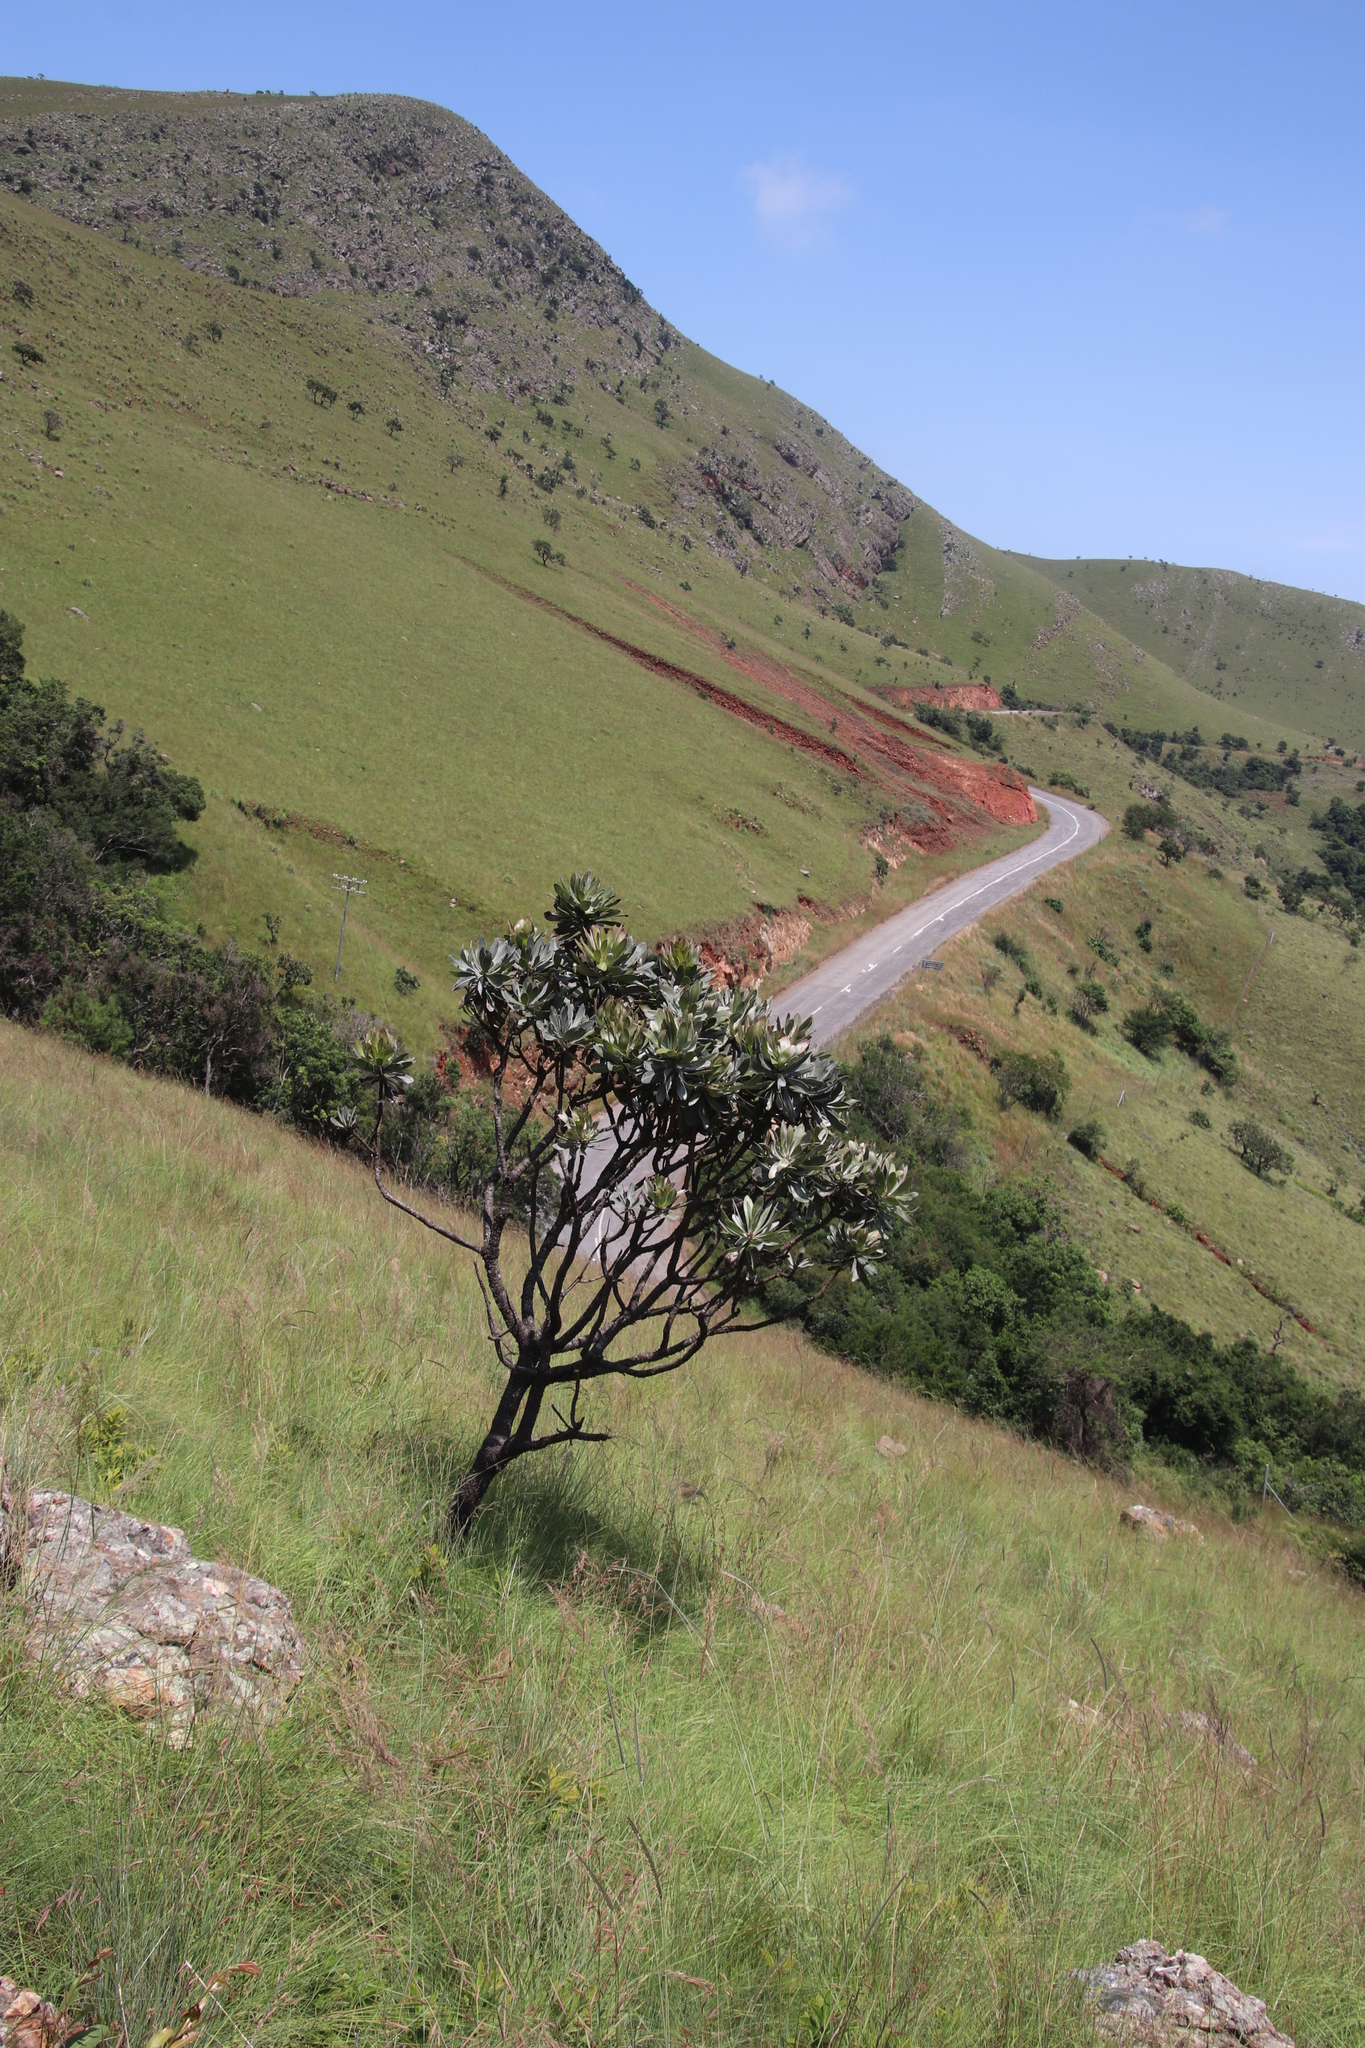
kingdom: Plantae
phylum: Tracheophyta
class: Magnoliopsida
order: Proteales
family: Proteaceae
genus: Protea
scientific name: Protea roupelliae
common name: Silver sugarbush
